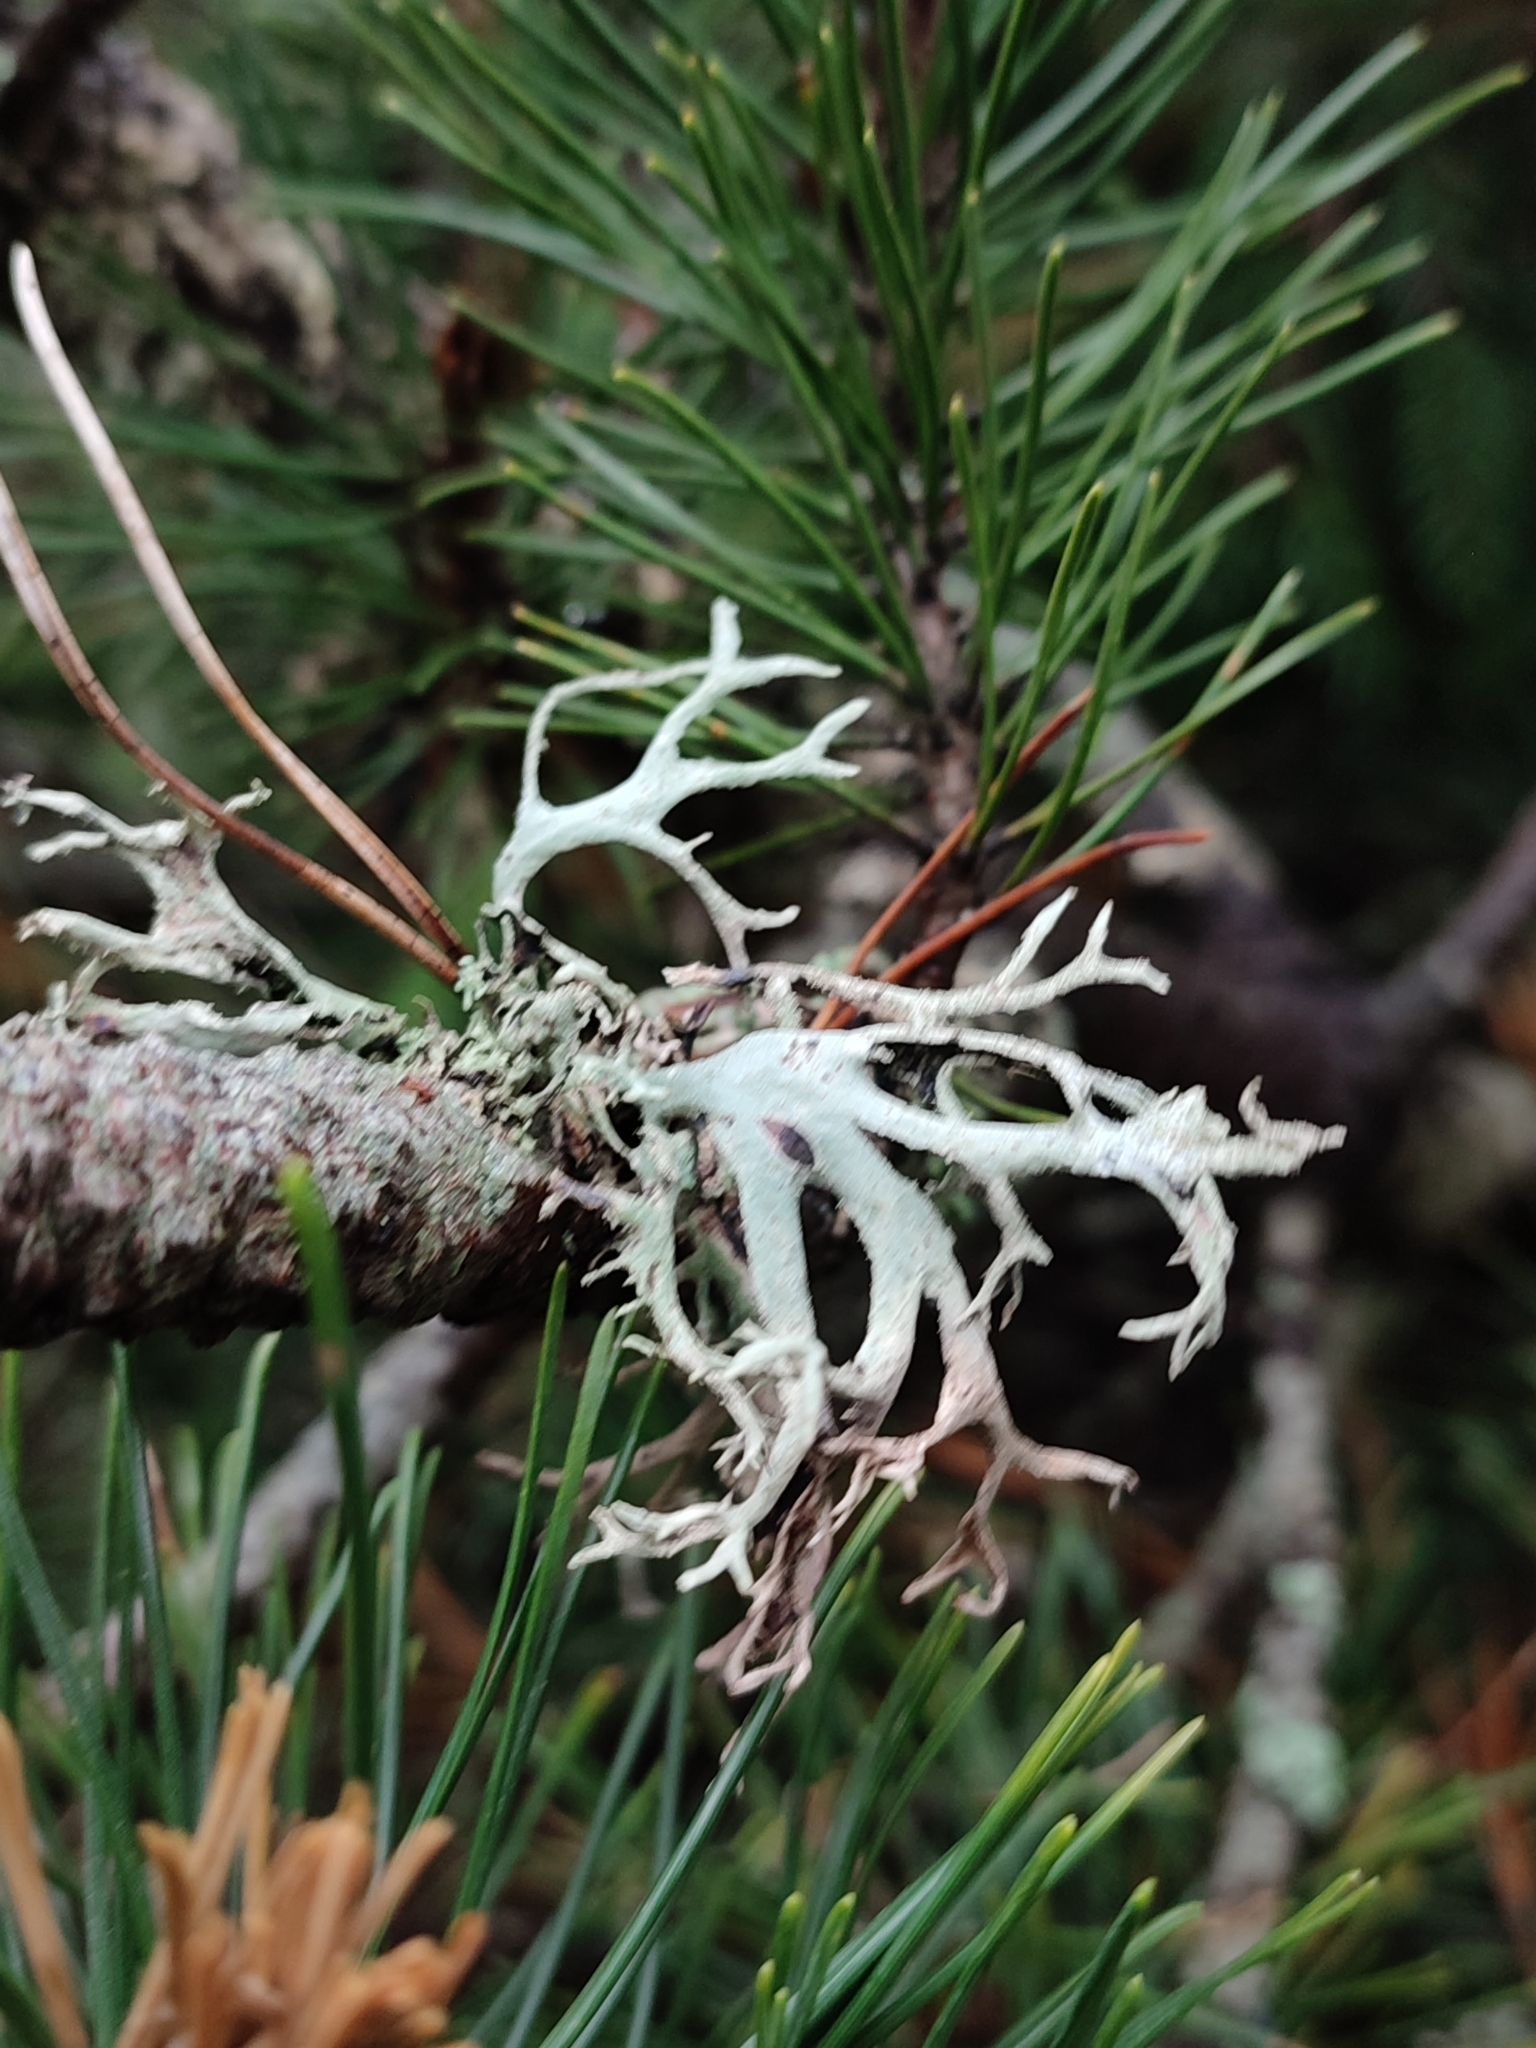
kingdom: Fungi
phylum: Ascomycota
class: Lecanoromycetes
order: Lecanorales
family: Parmeliaceae
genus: Pseudevernia
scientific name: Pseudevernia furfuracea
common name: Tree moss
